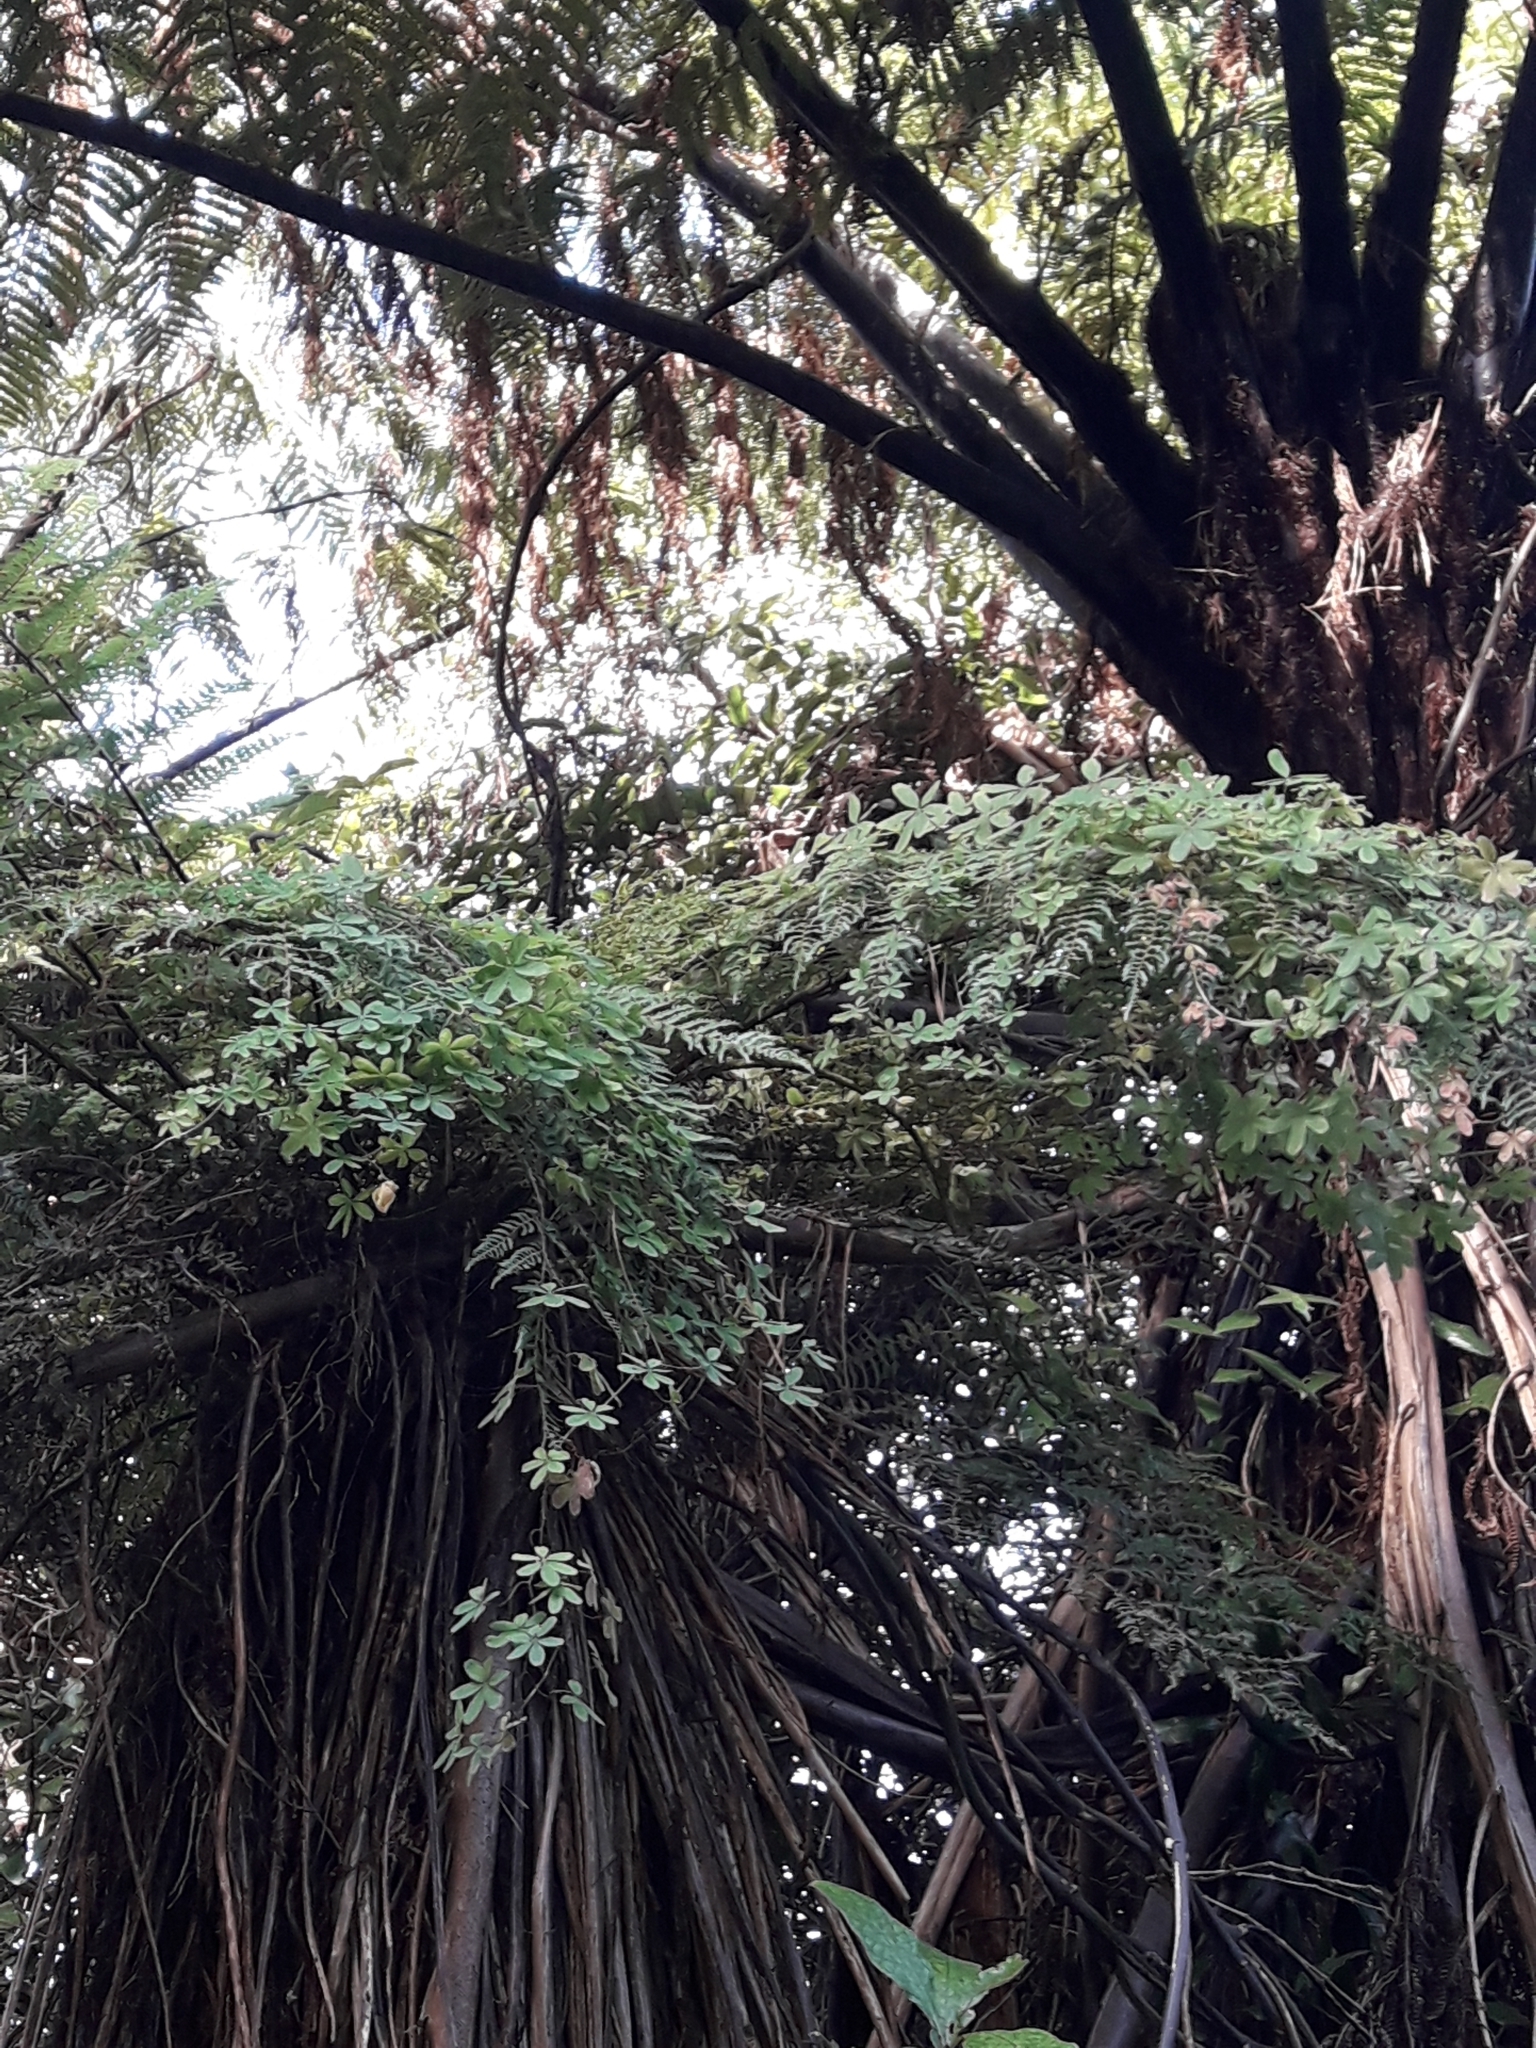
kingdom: Plantae
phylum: Tracheophyta
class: Magnoliopsida
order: Brassicales
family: Tropaeolaceae
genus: Tropaeolum
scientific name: Tropaeolum speciosum
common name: Flame nasturtium
